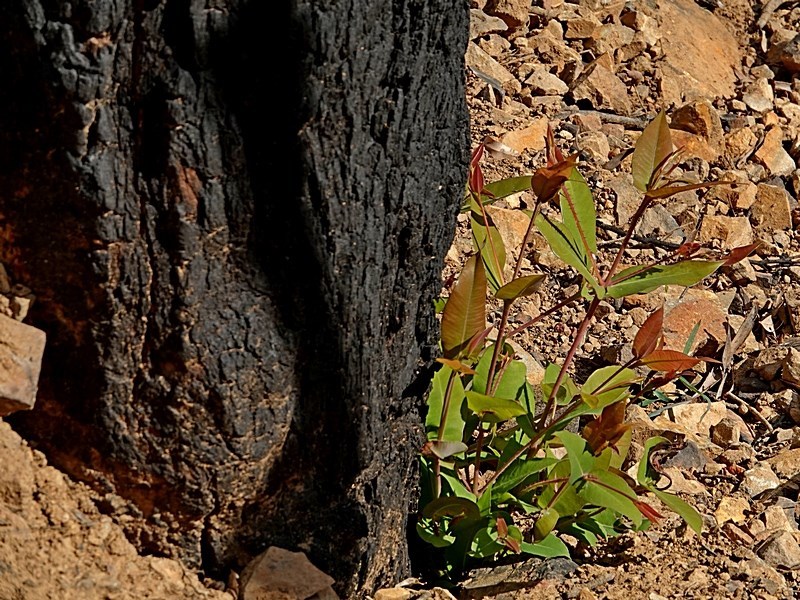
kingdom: Plantae
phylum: Tracheophyta
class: Magnoliopsida
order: Myrtales
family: Myrtaceae
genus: Angophora
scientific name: Angophora floribunda
